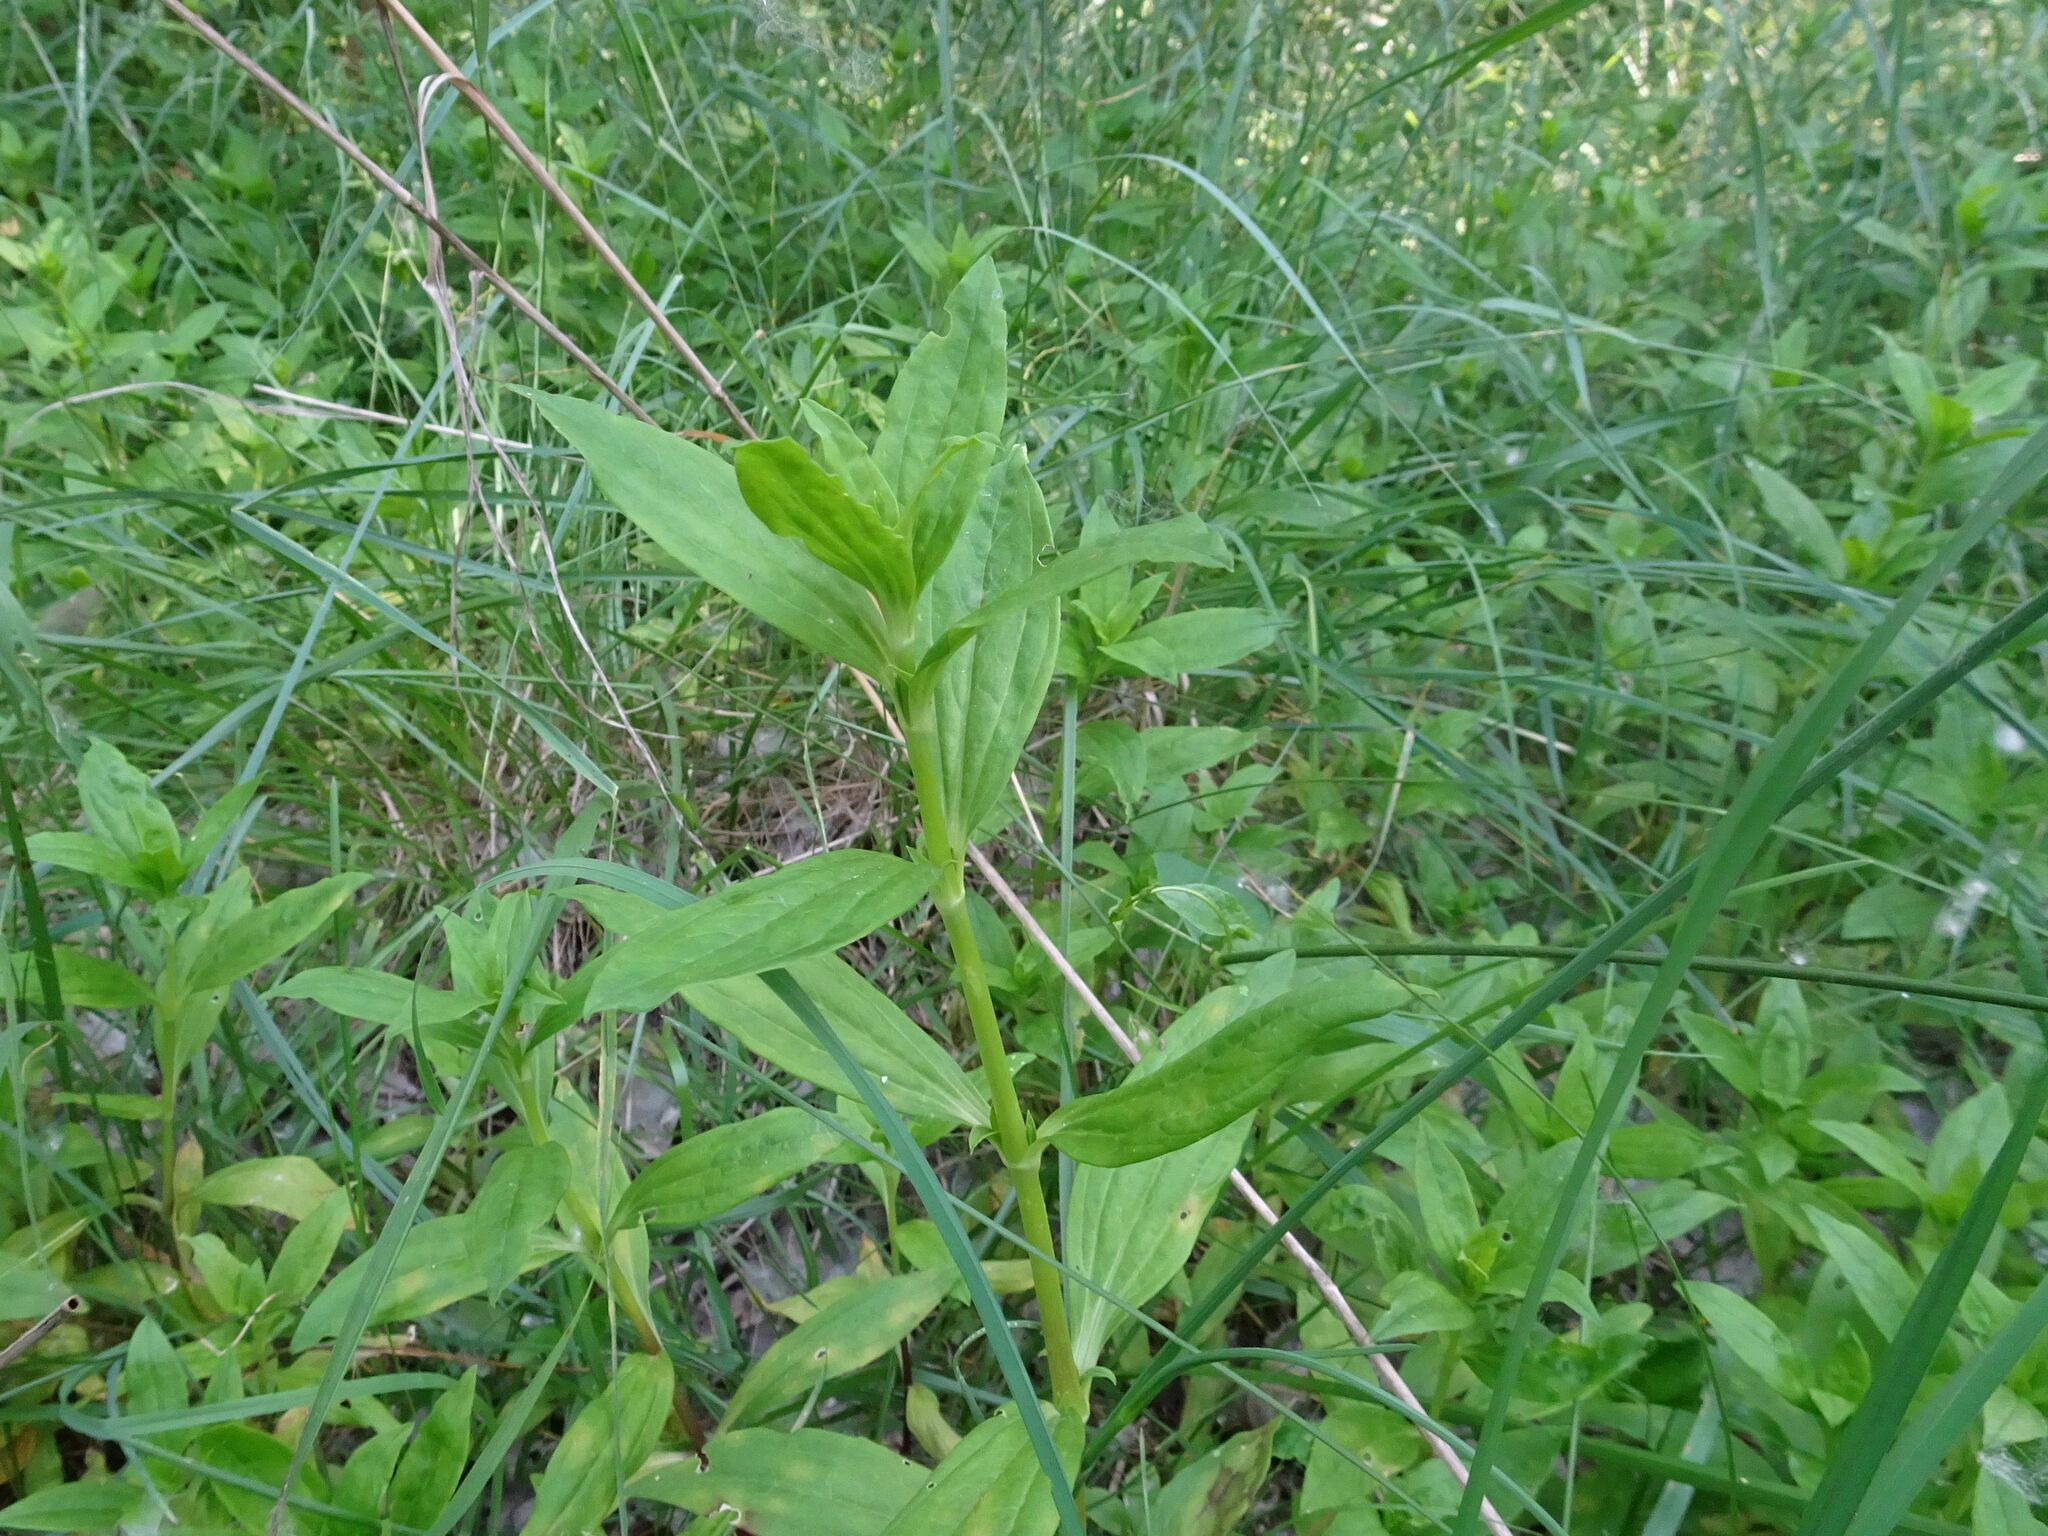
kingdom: Plantae
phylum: Tracheophyta
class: Magnoliopsida
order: Caryophyllales
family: Caryophyllaceae
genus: Saponaria
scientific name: Saponaria officinalis
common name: Soapwort
